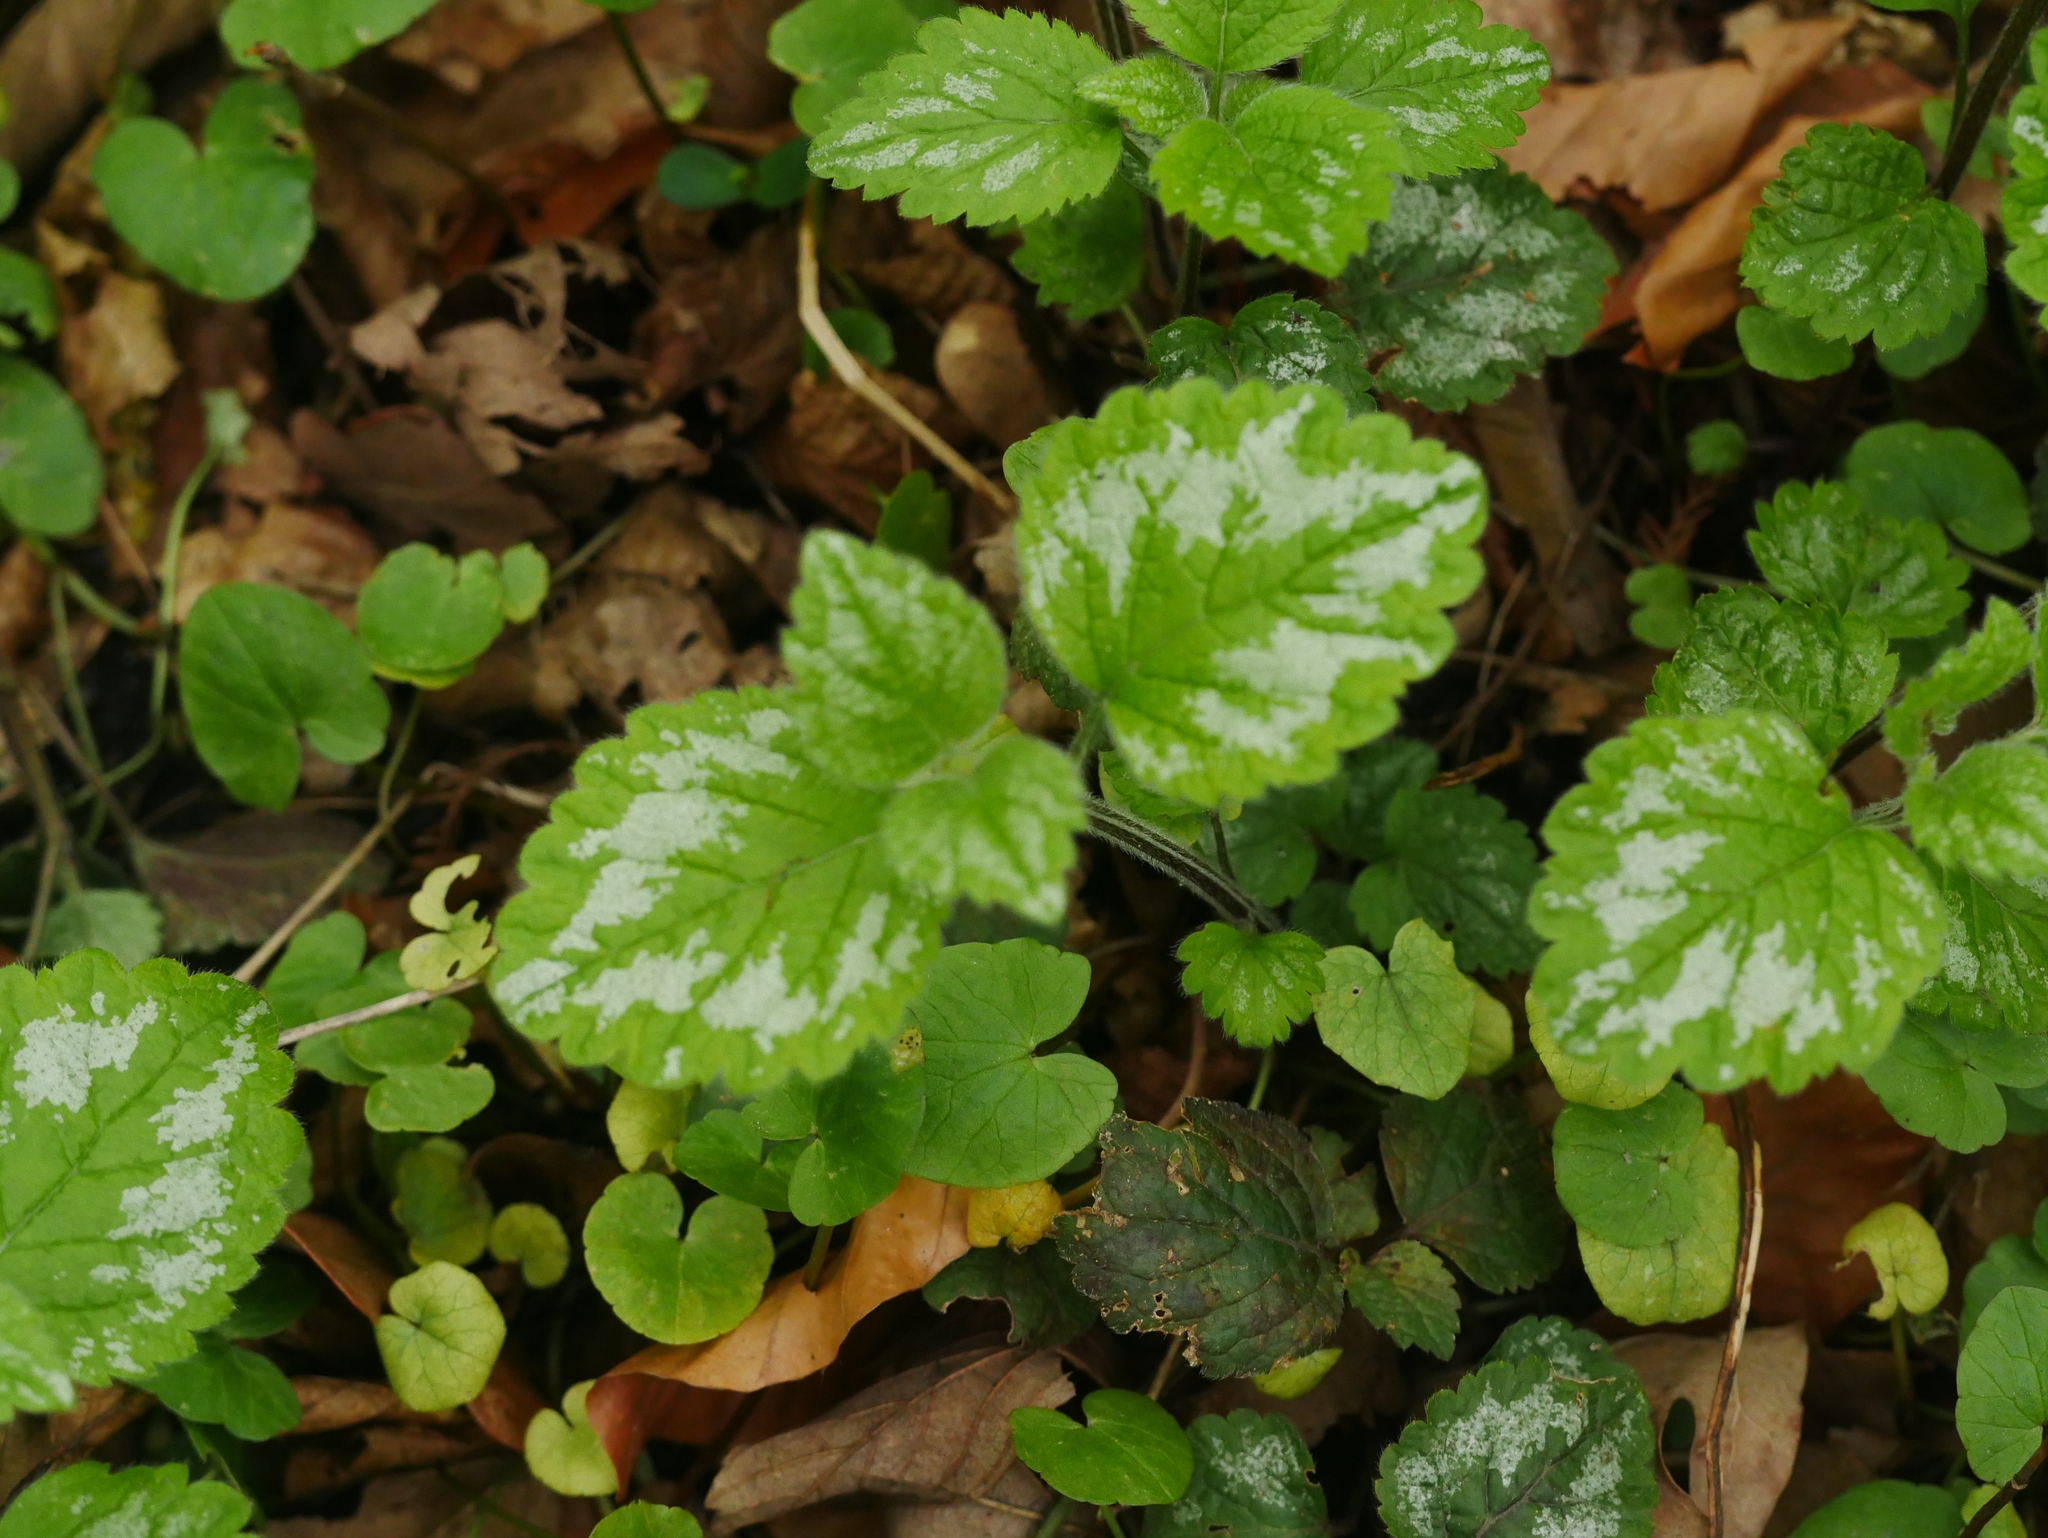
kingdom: Plantae
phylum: Tracheophyta
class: Magnoliopsida
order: Lamiales
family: Lamiaceae
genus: Lamium
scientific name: Lamium galeobdolon
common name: Yellow archangel
